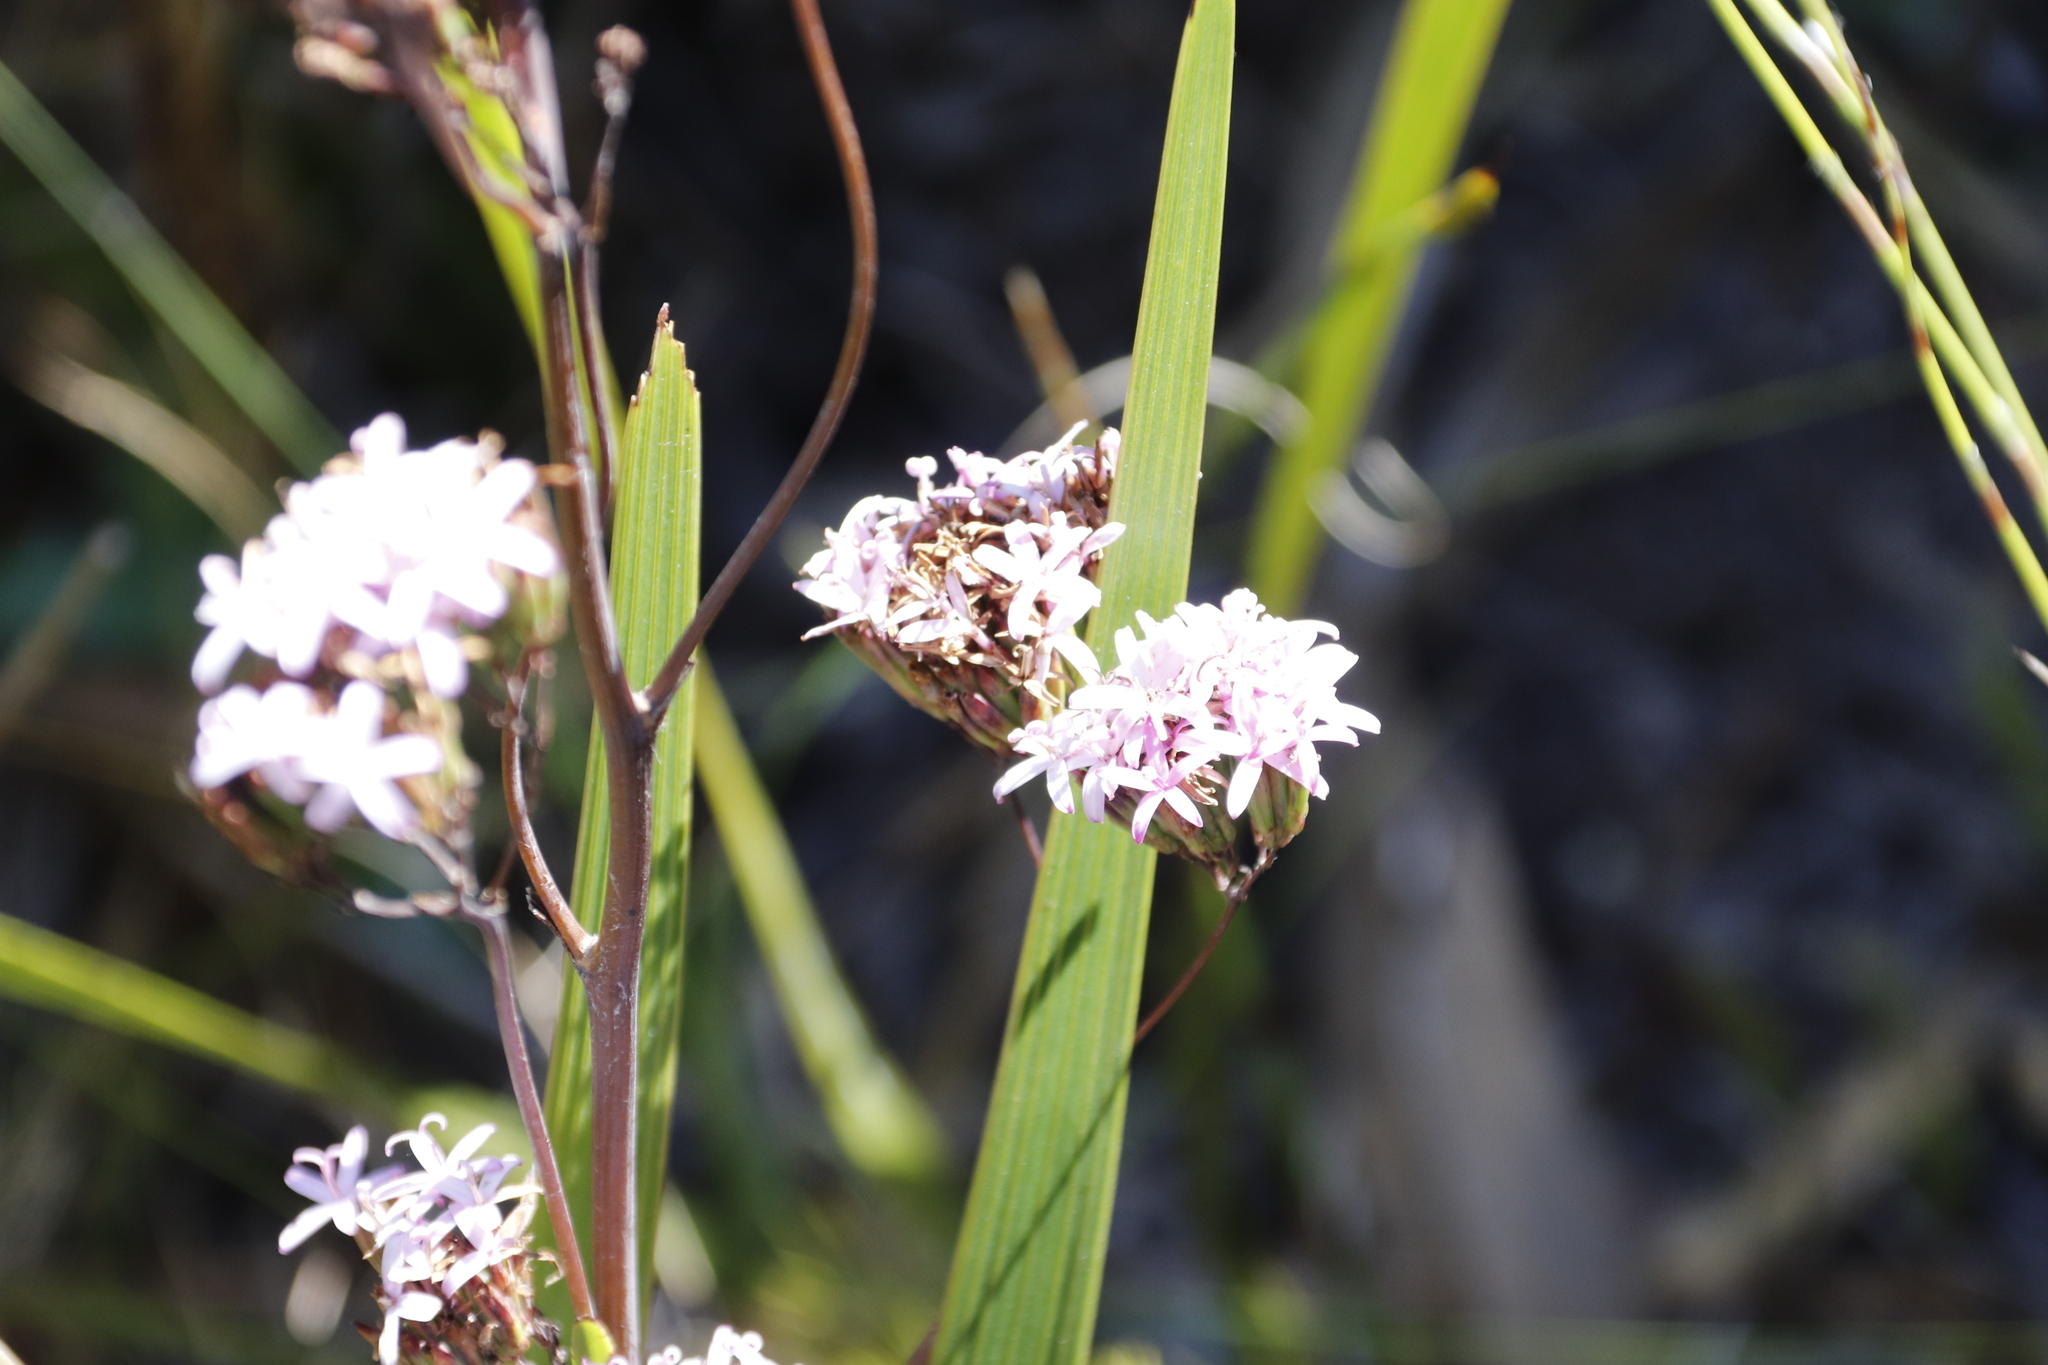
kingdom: Plantae
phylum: Tracheophyta
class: Magnoliopsida
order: Asterales
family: Asteraceae
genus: Corymbium
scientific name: Corymbium glabrum
